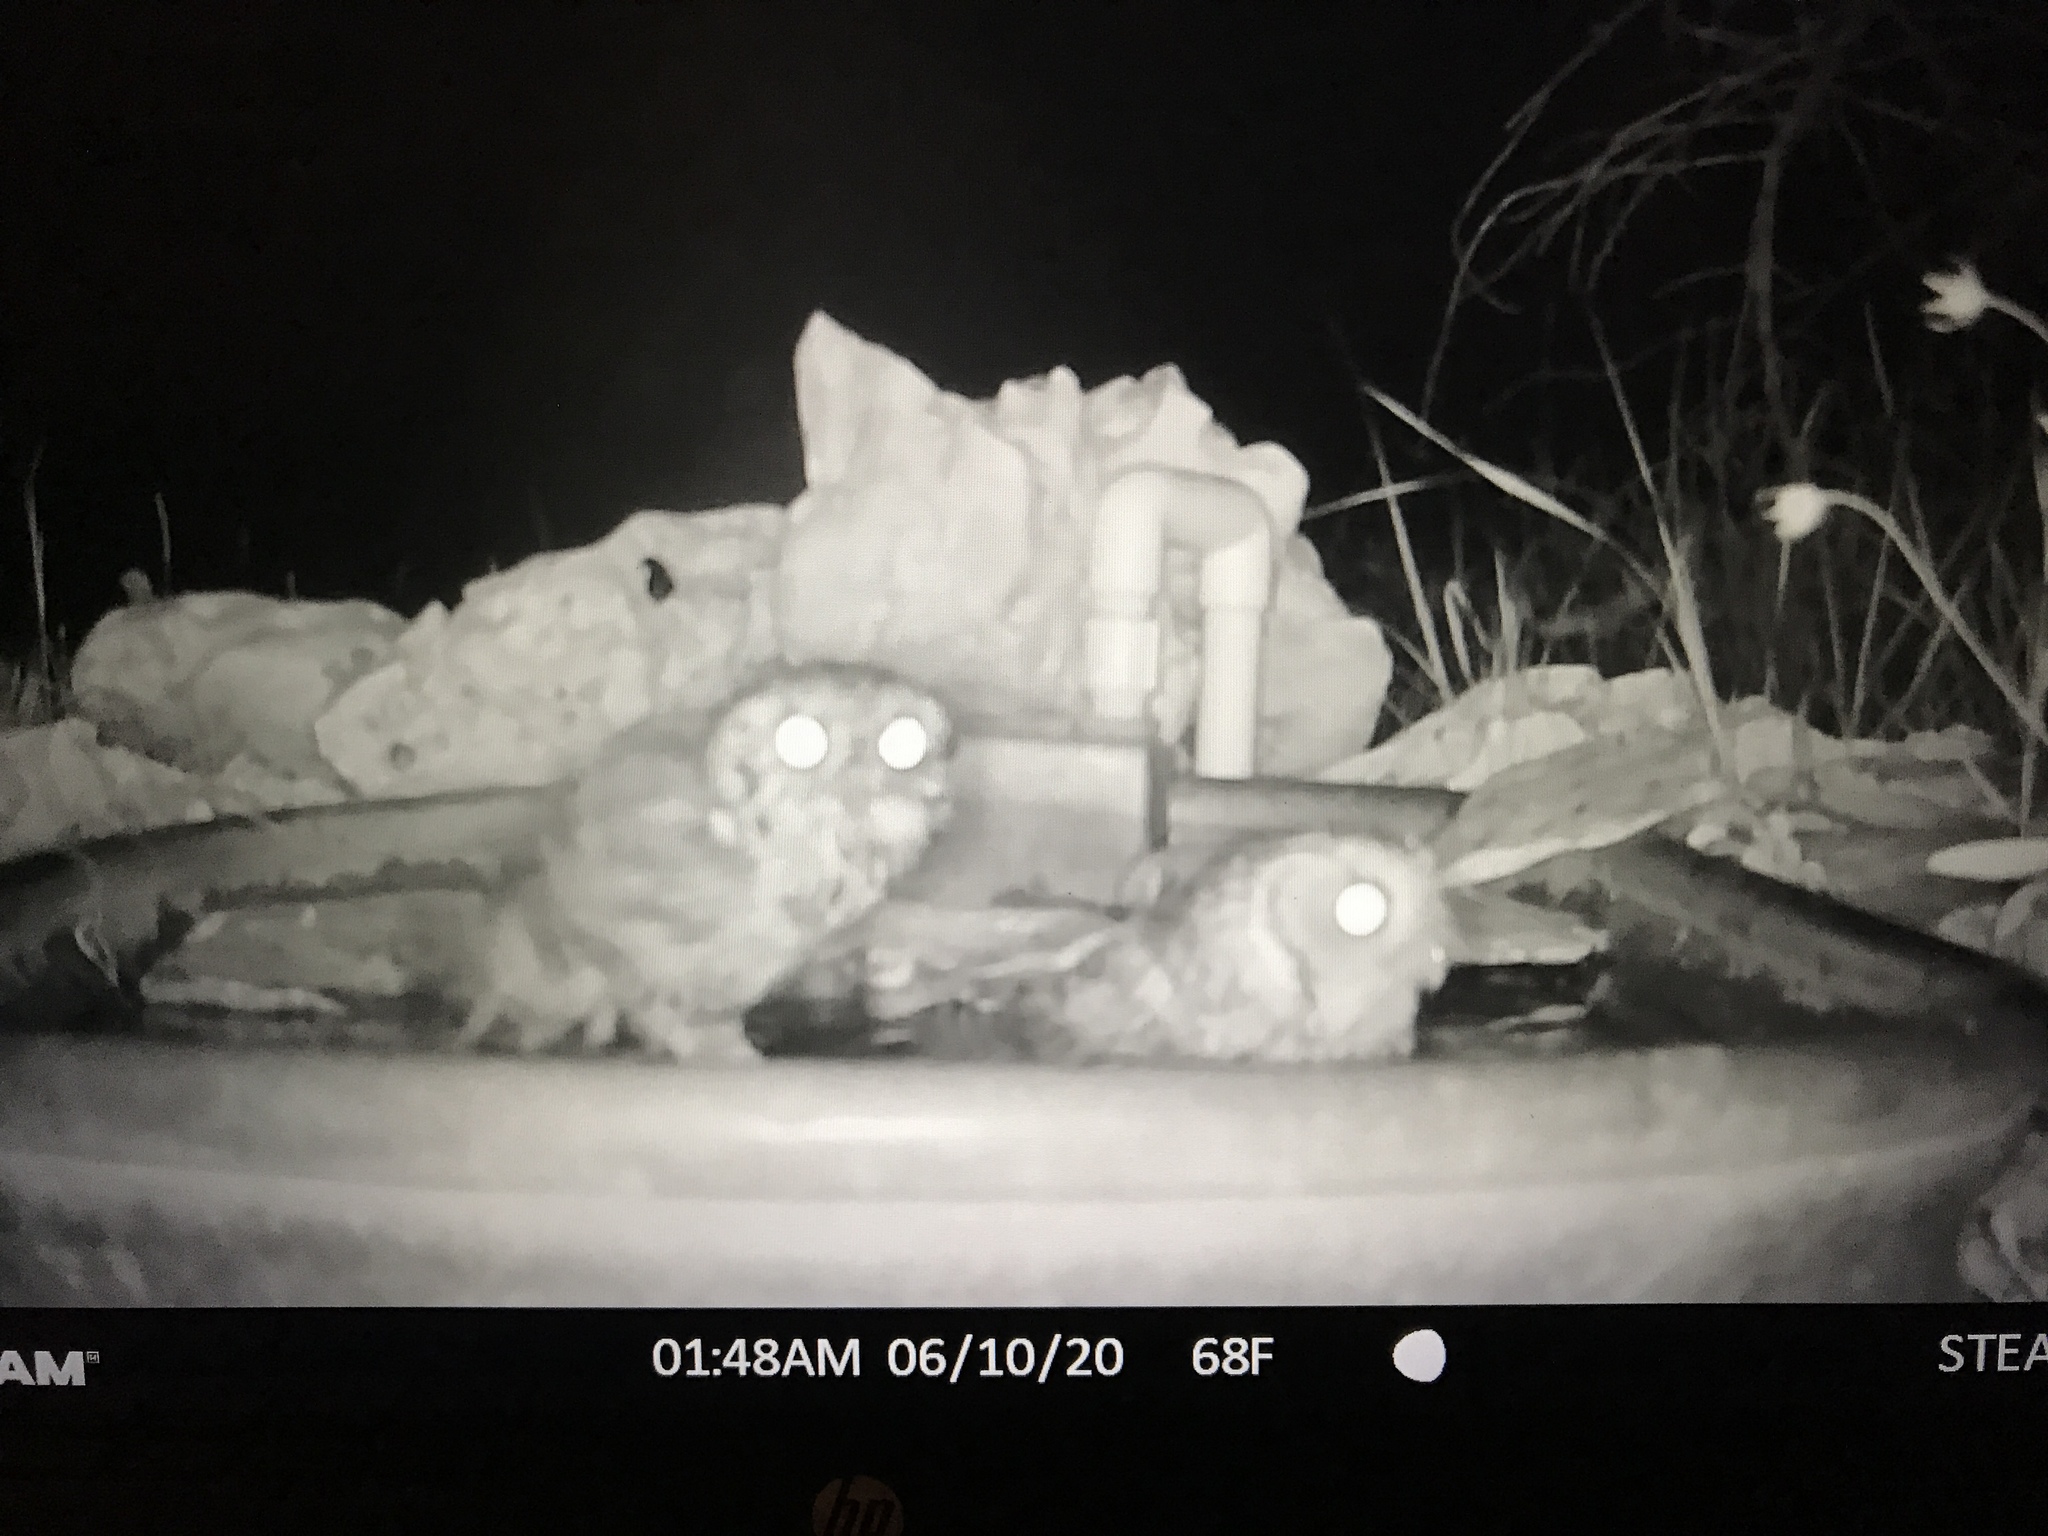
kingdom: Animalia
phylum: Chordata
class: Aves
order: Strigiformes
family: Strigidae
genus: Megascops
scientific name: Megascops asio
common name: Eastern screech-owl
